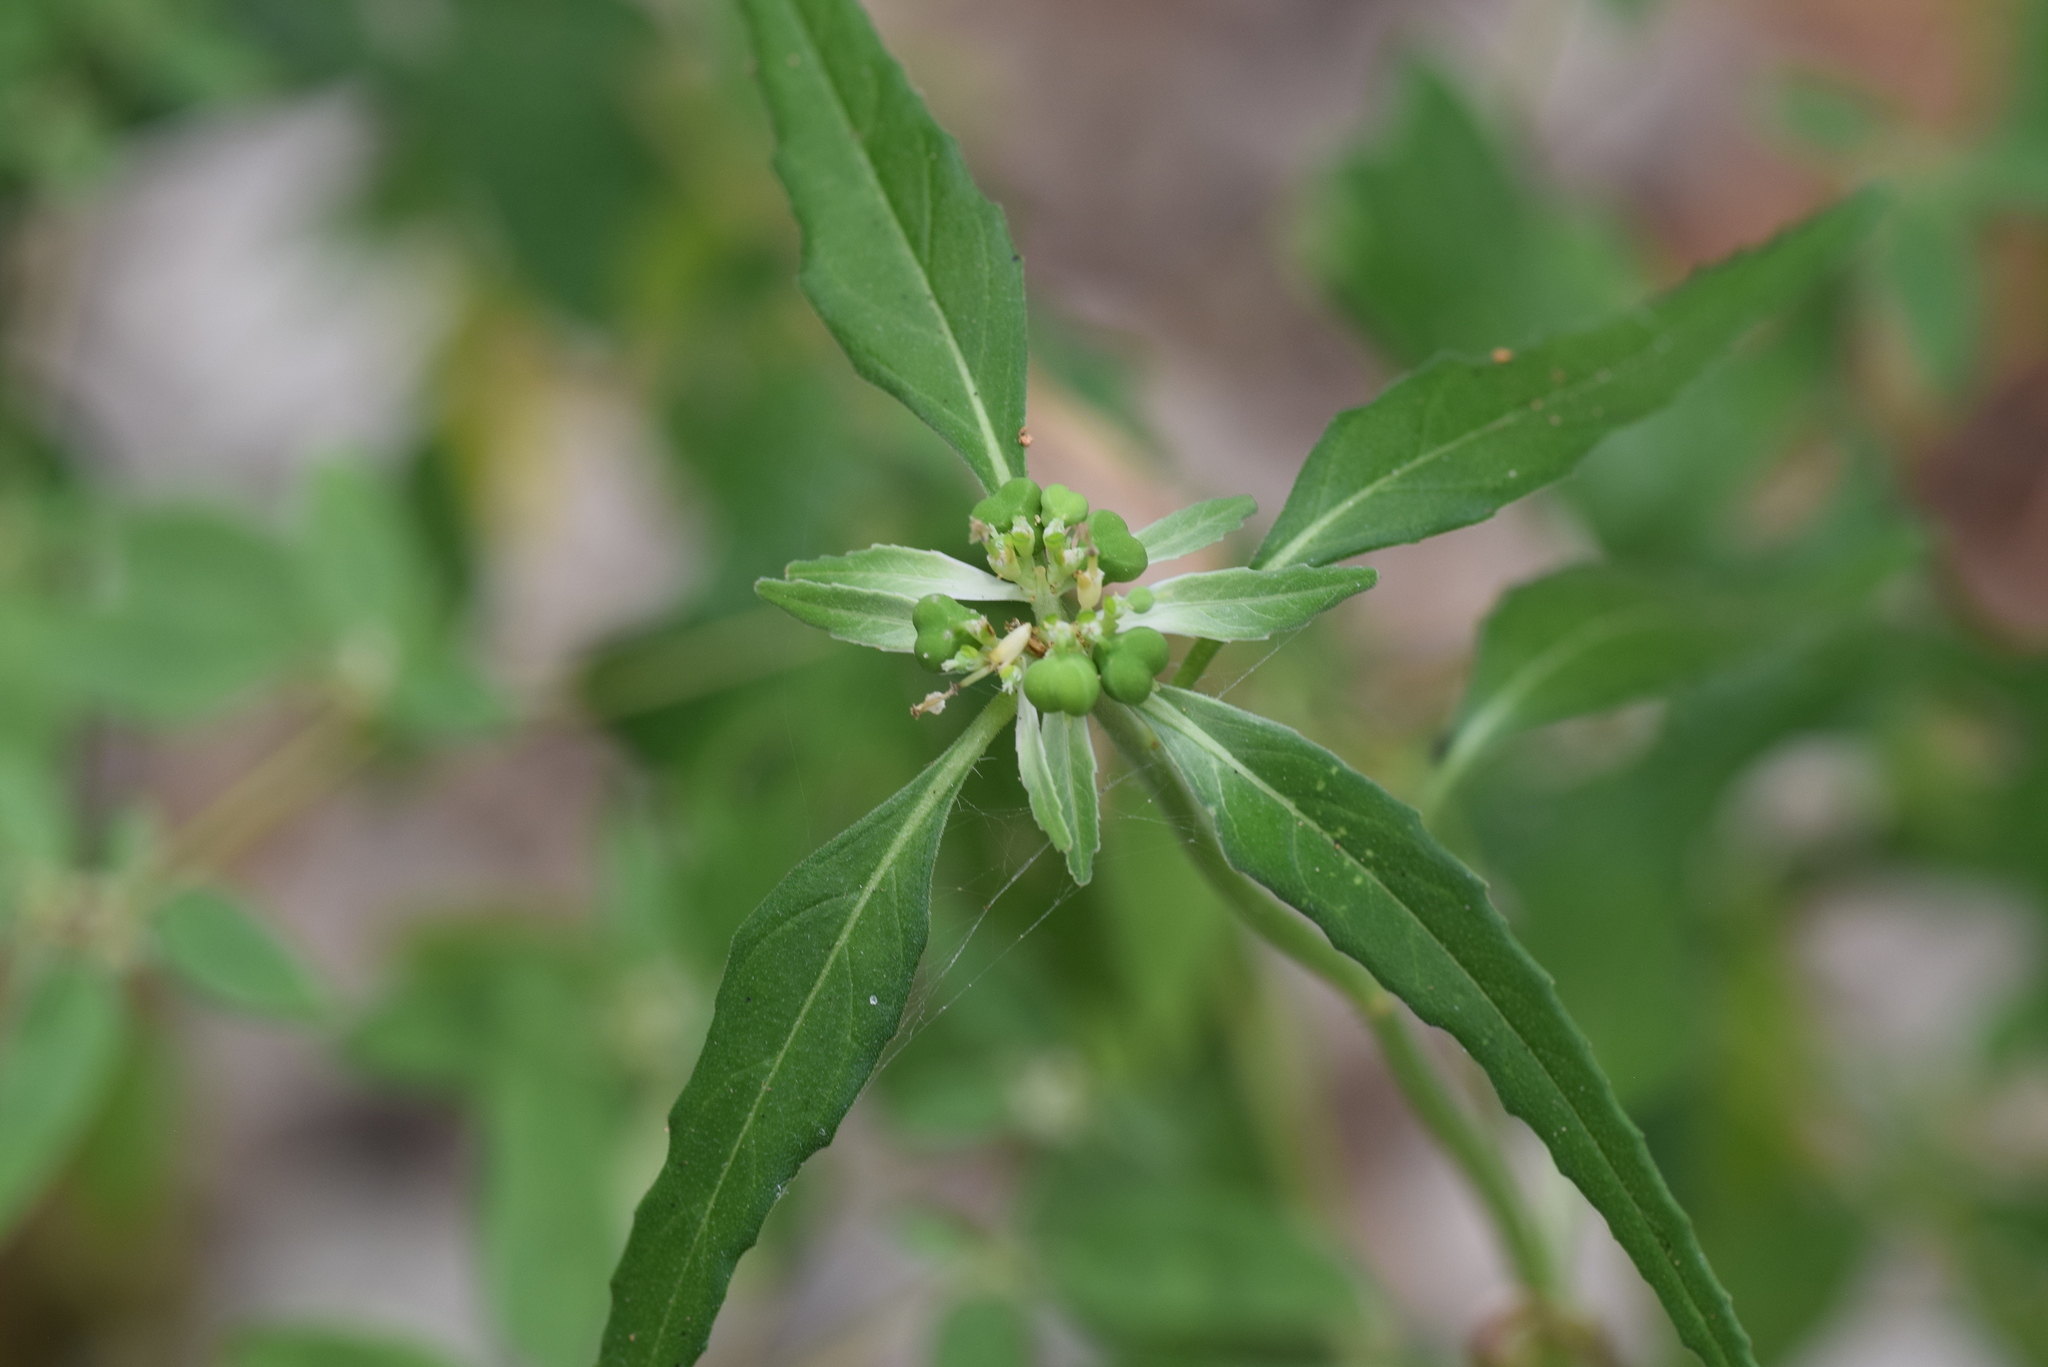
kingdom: Plantae
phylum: Tracheophyta
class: Magnoliopsida
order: Malpighiales
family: Euphorbiaceae
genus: Euphorbia
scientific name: Euphorbia dentata
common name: Dentate spurge
